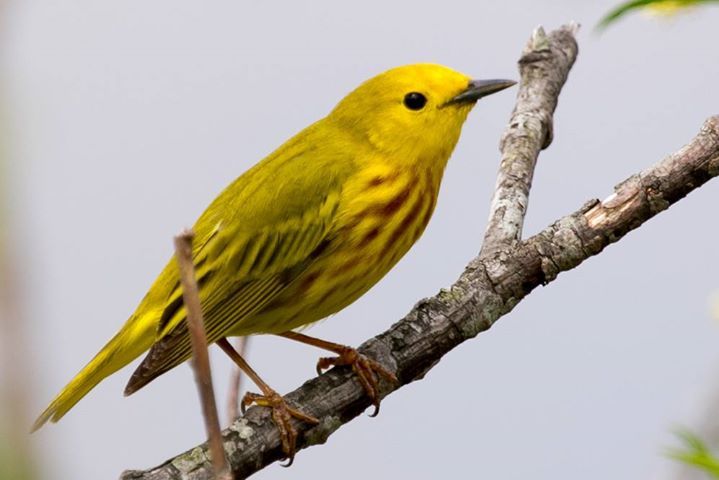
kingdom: Animalia
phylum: Chordata
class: Aves
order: Passeriformes
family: Parulidae
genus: Setophaga
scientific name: Setophaga petechia
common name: Yellow warbler
